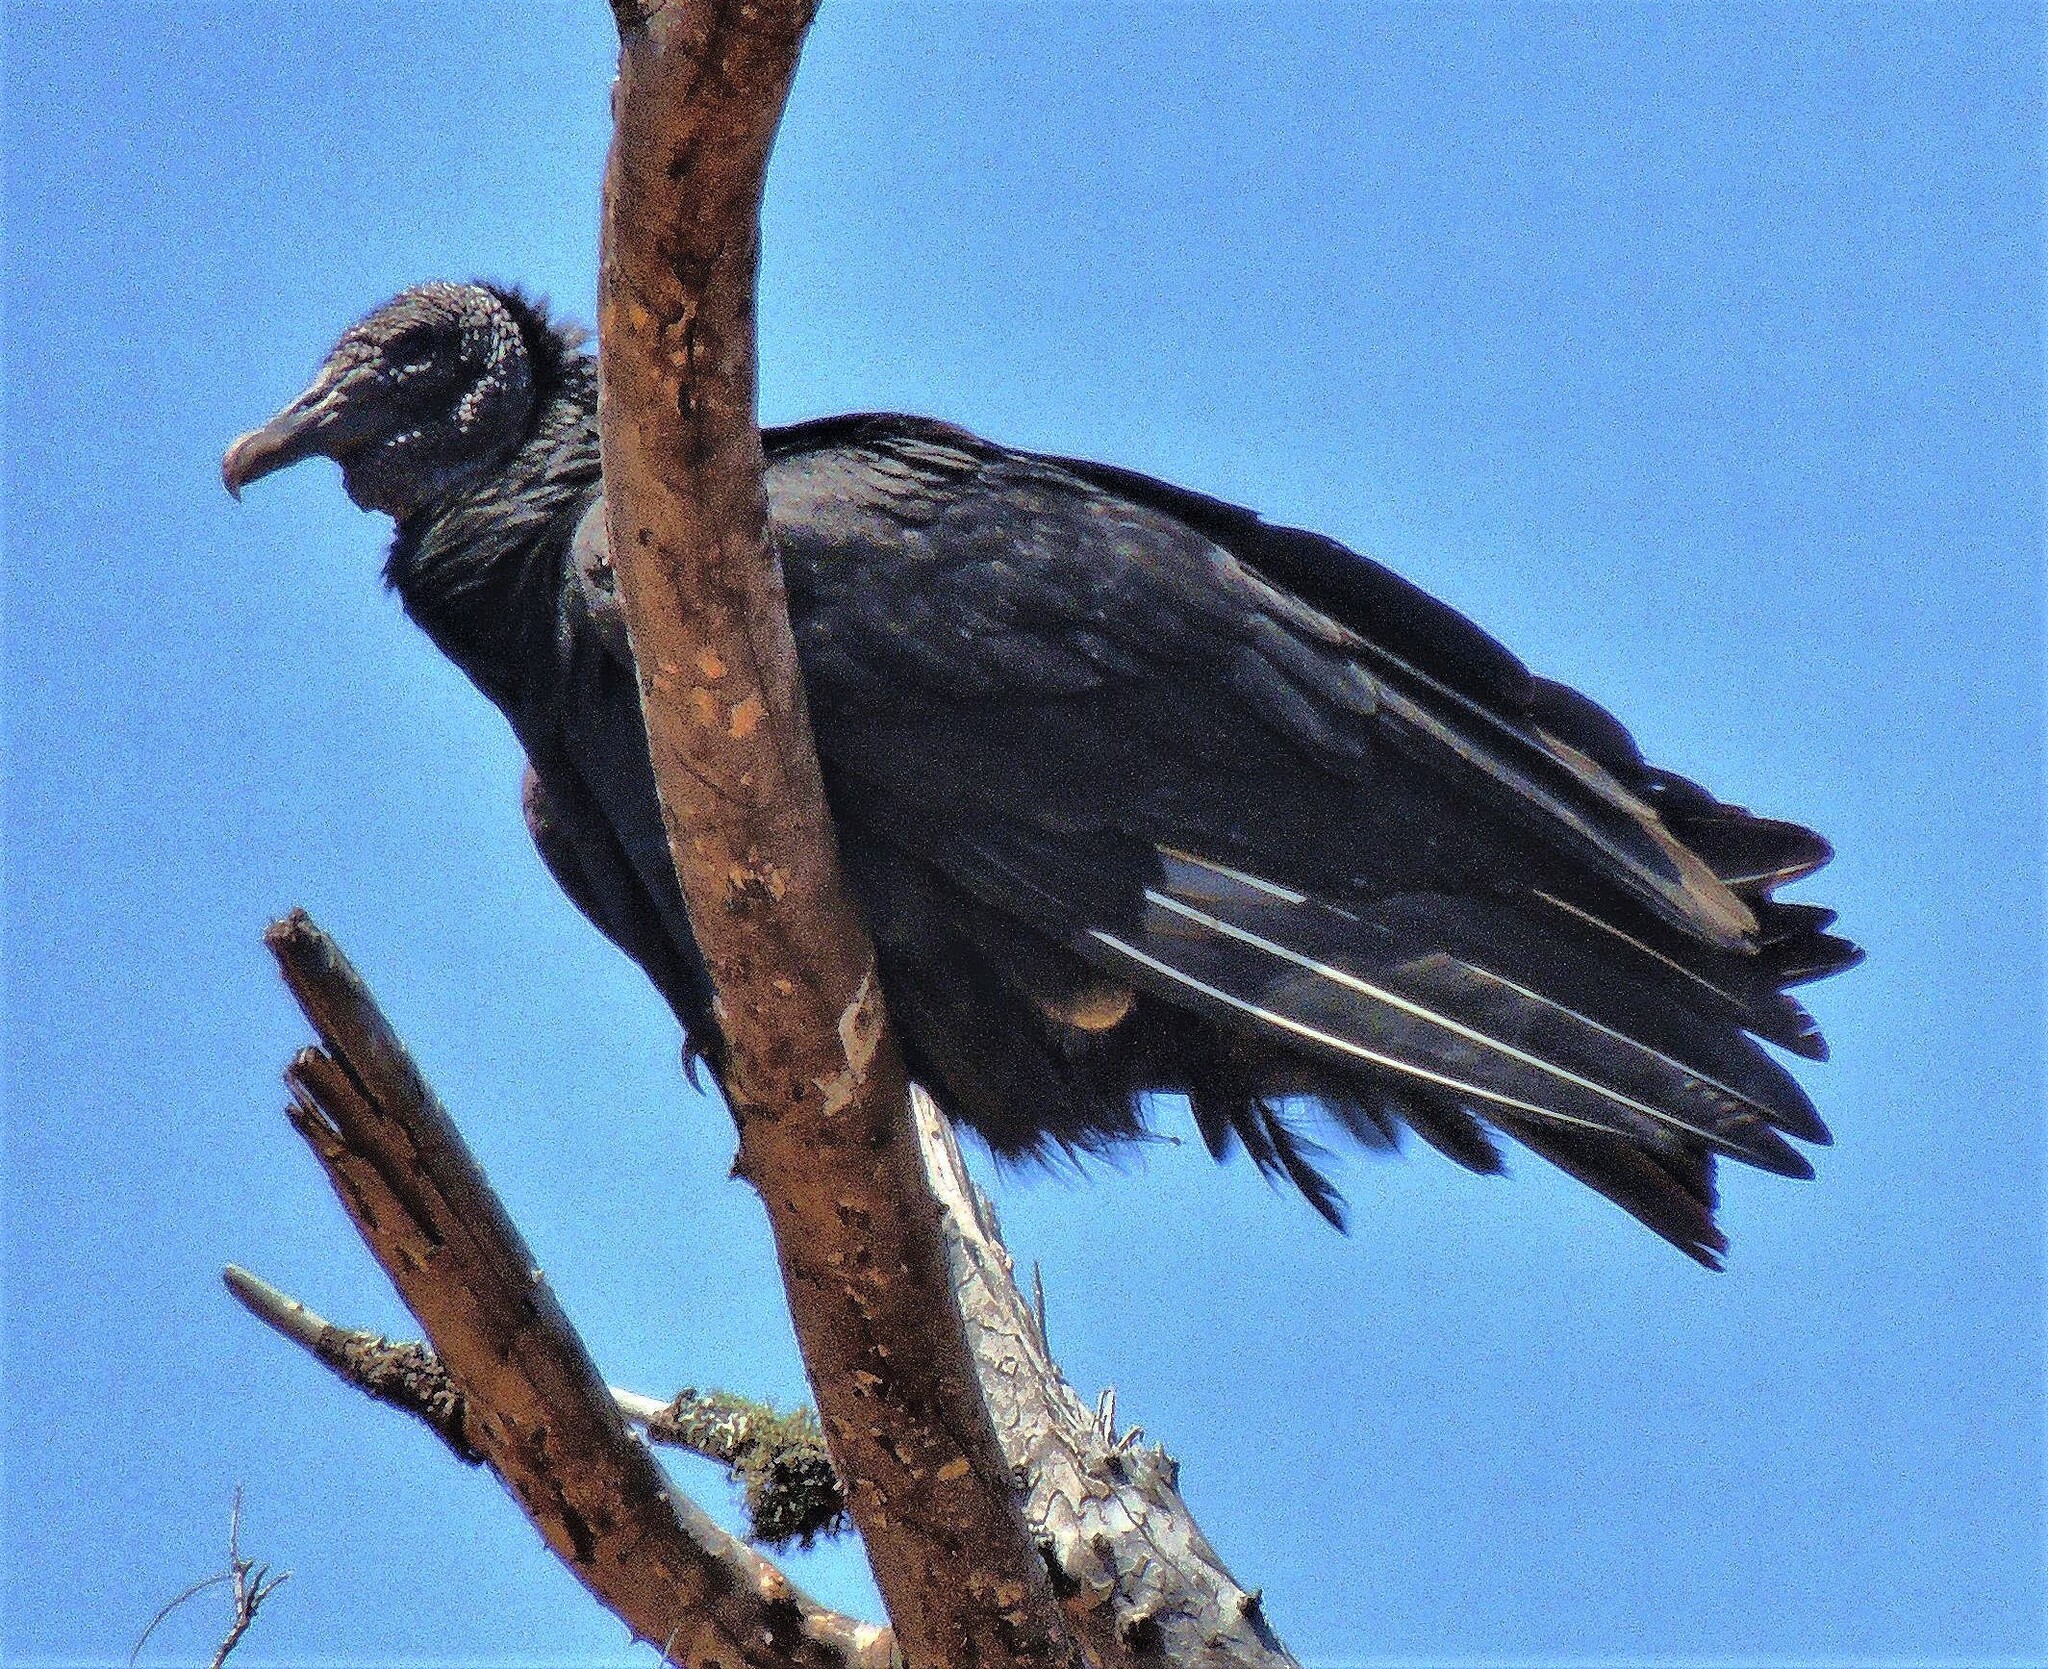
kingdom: Animalia
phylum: Chordata
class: Aves
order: Accipitriformes
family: Cathartidae
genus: Coragyps
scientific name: Coragyps atratus
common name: Black vulture
